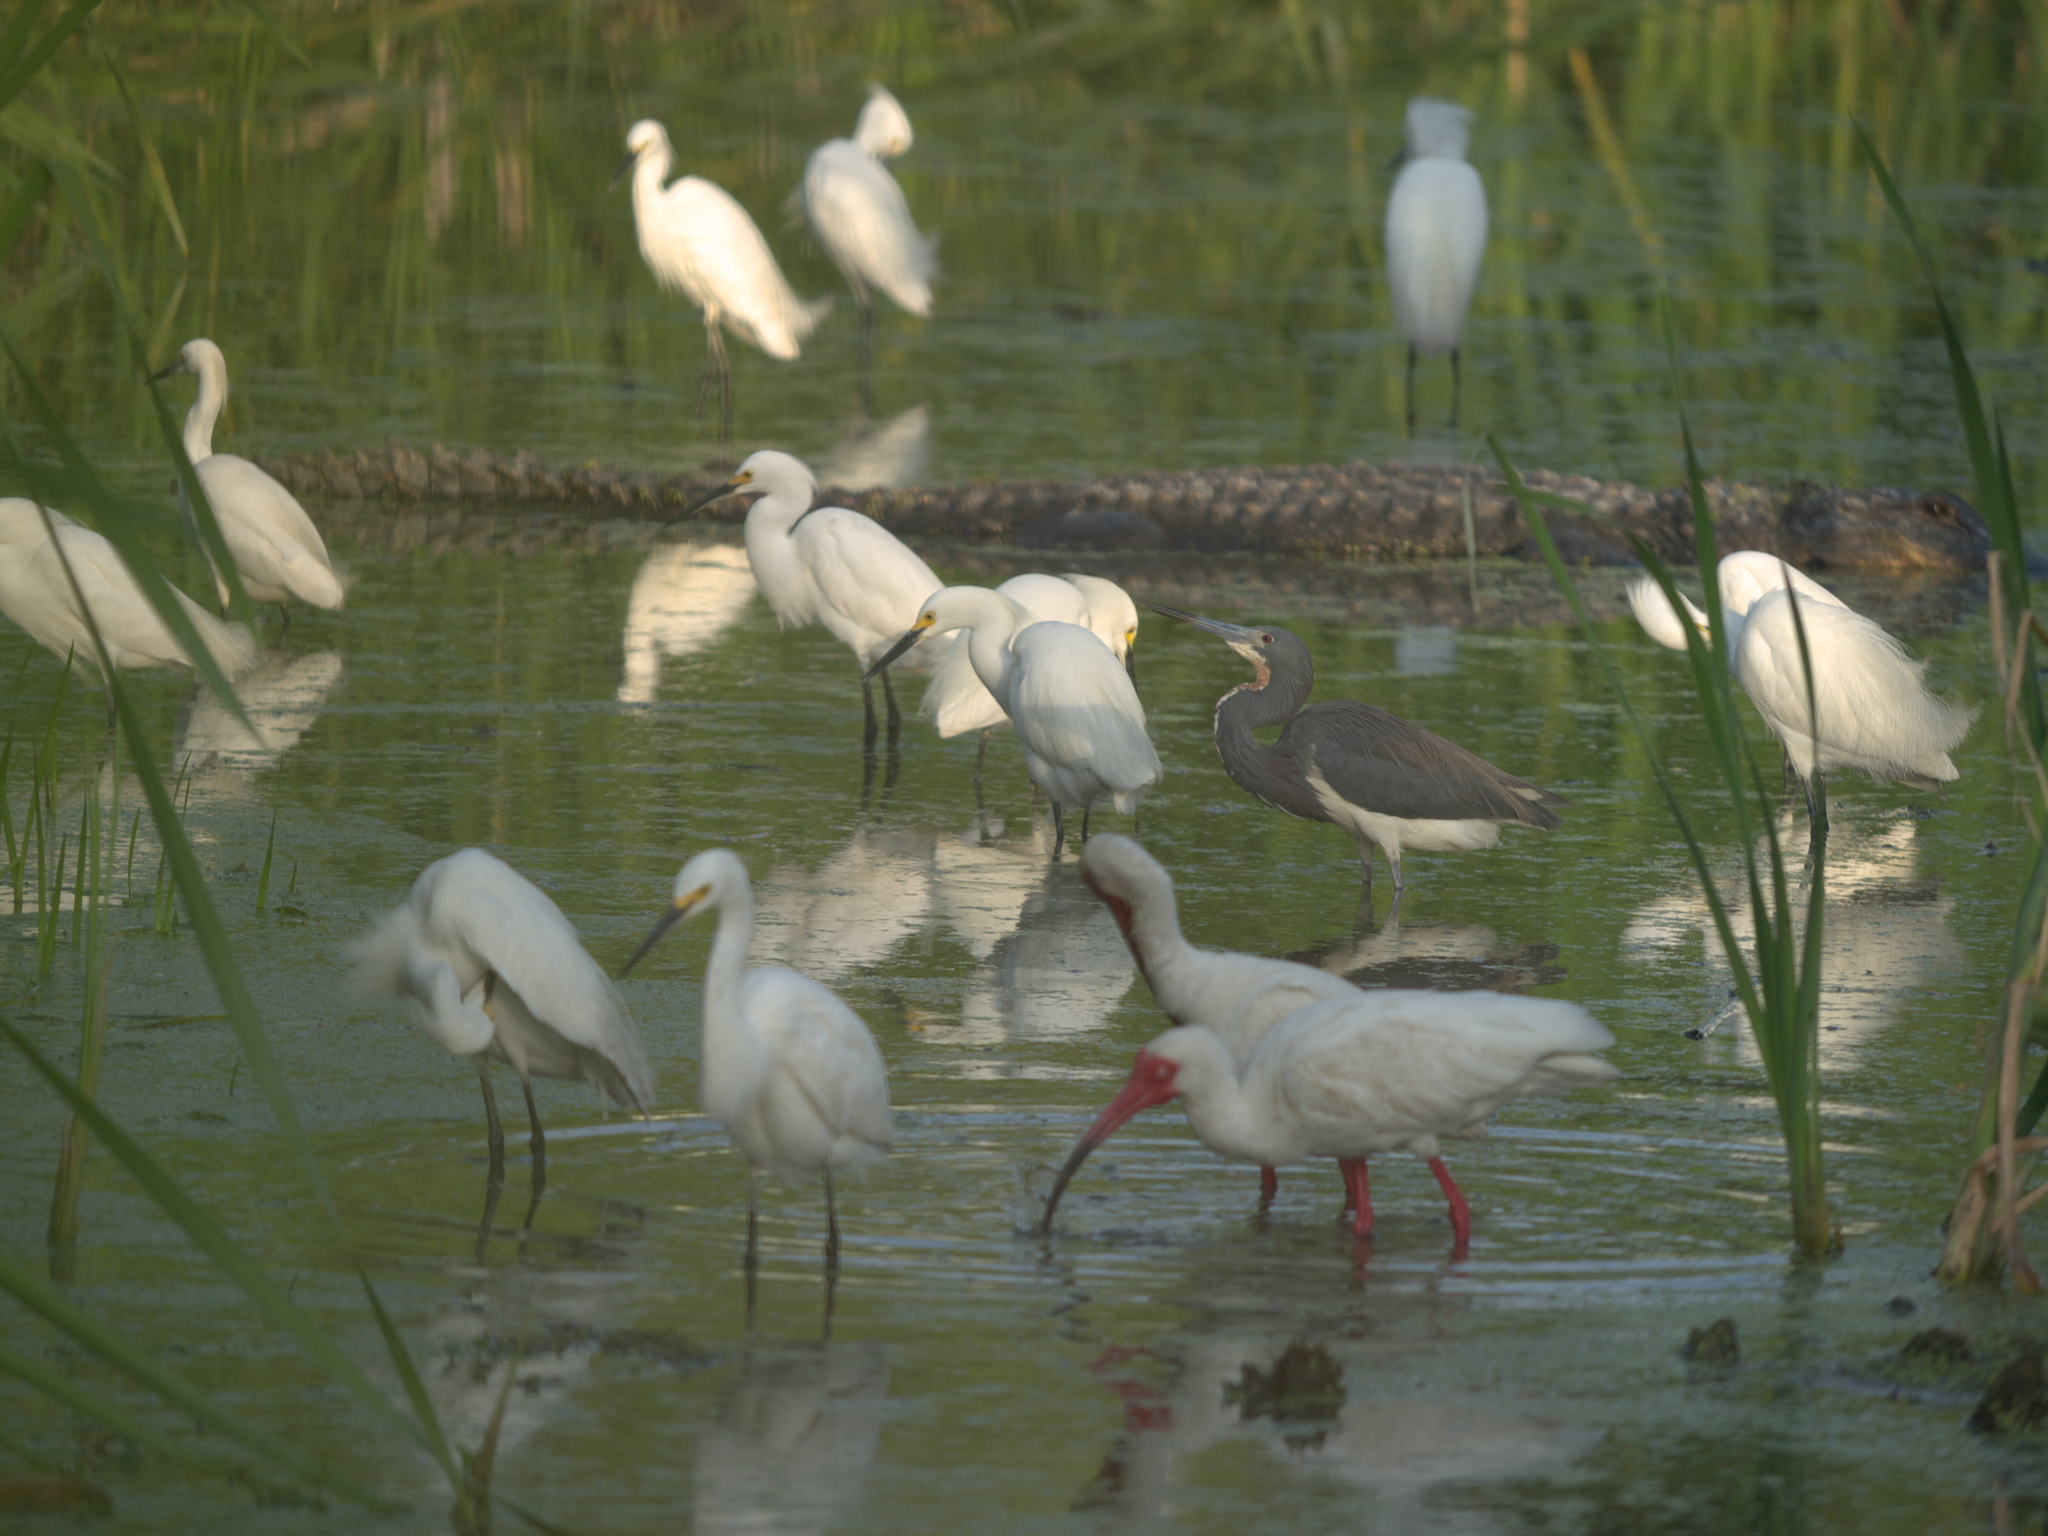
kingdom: Animalia
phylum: Chordata
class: Aves
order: Pelecaniformes
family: Ardeidae
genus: Egretta
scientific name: Egretta tricolor
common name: Tricolored heron
